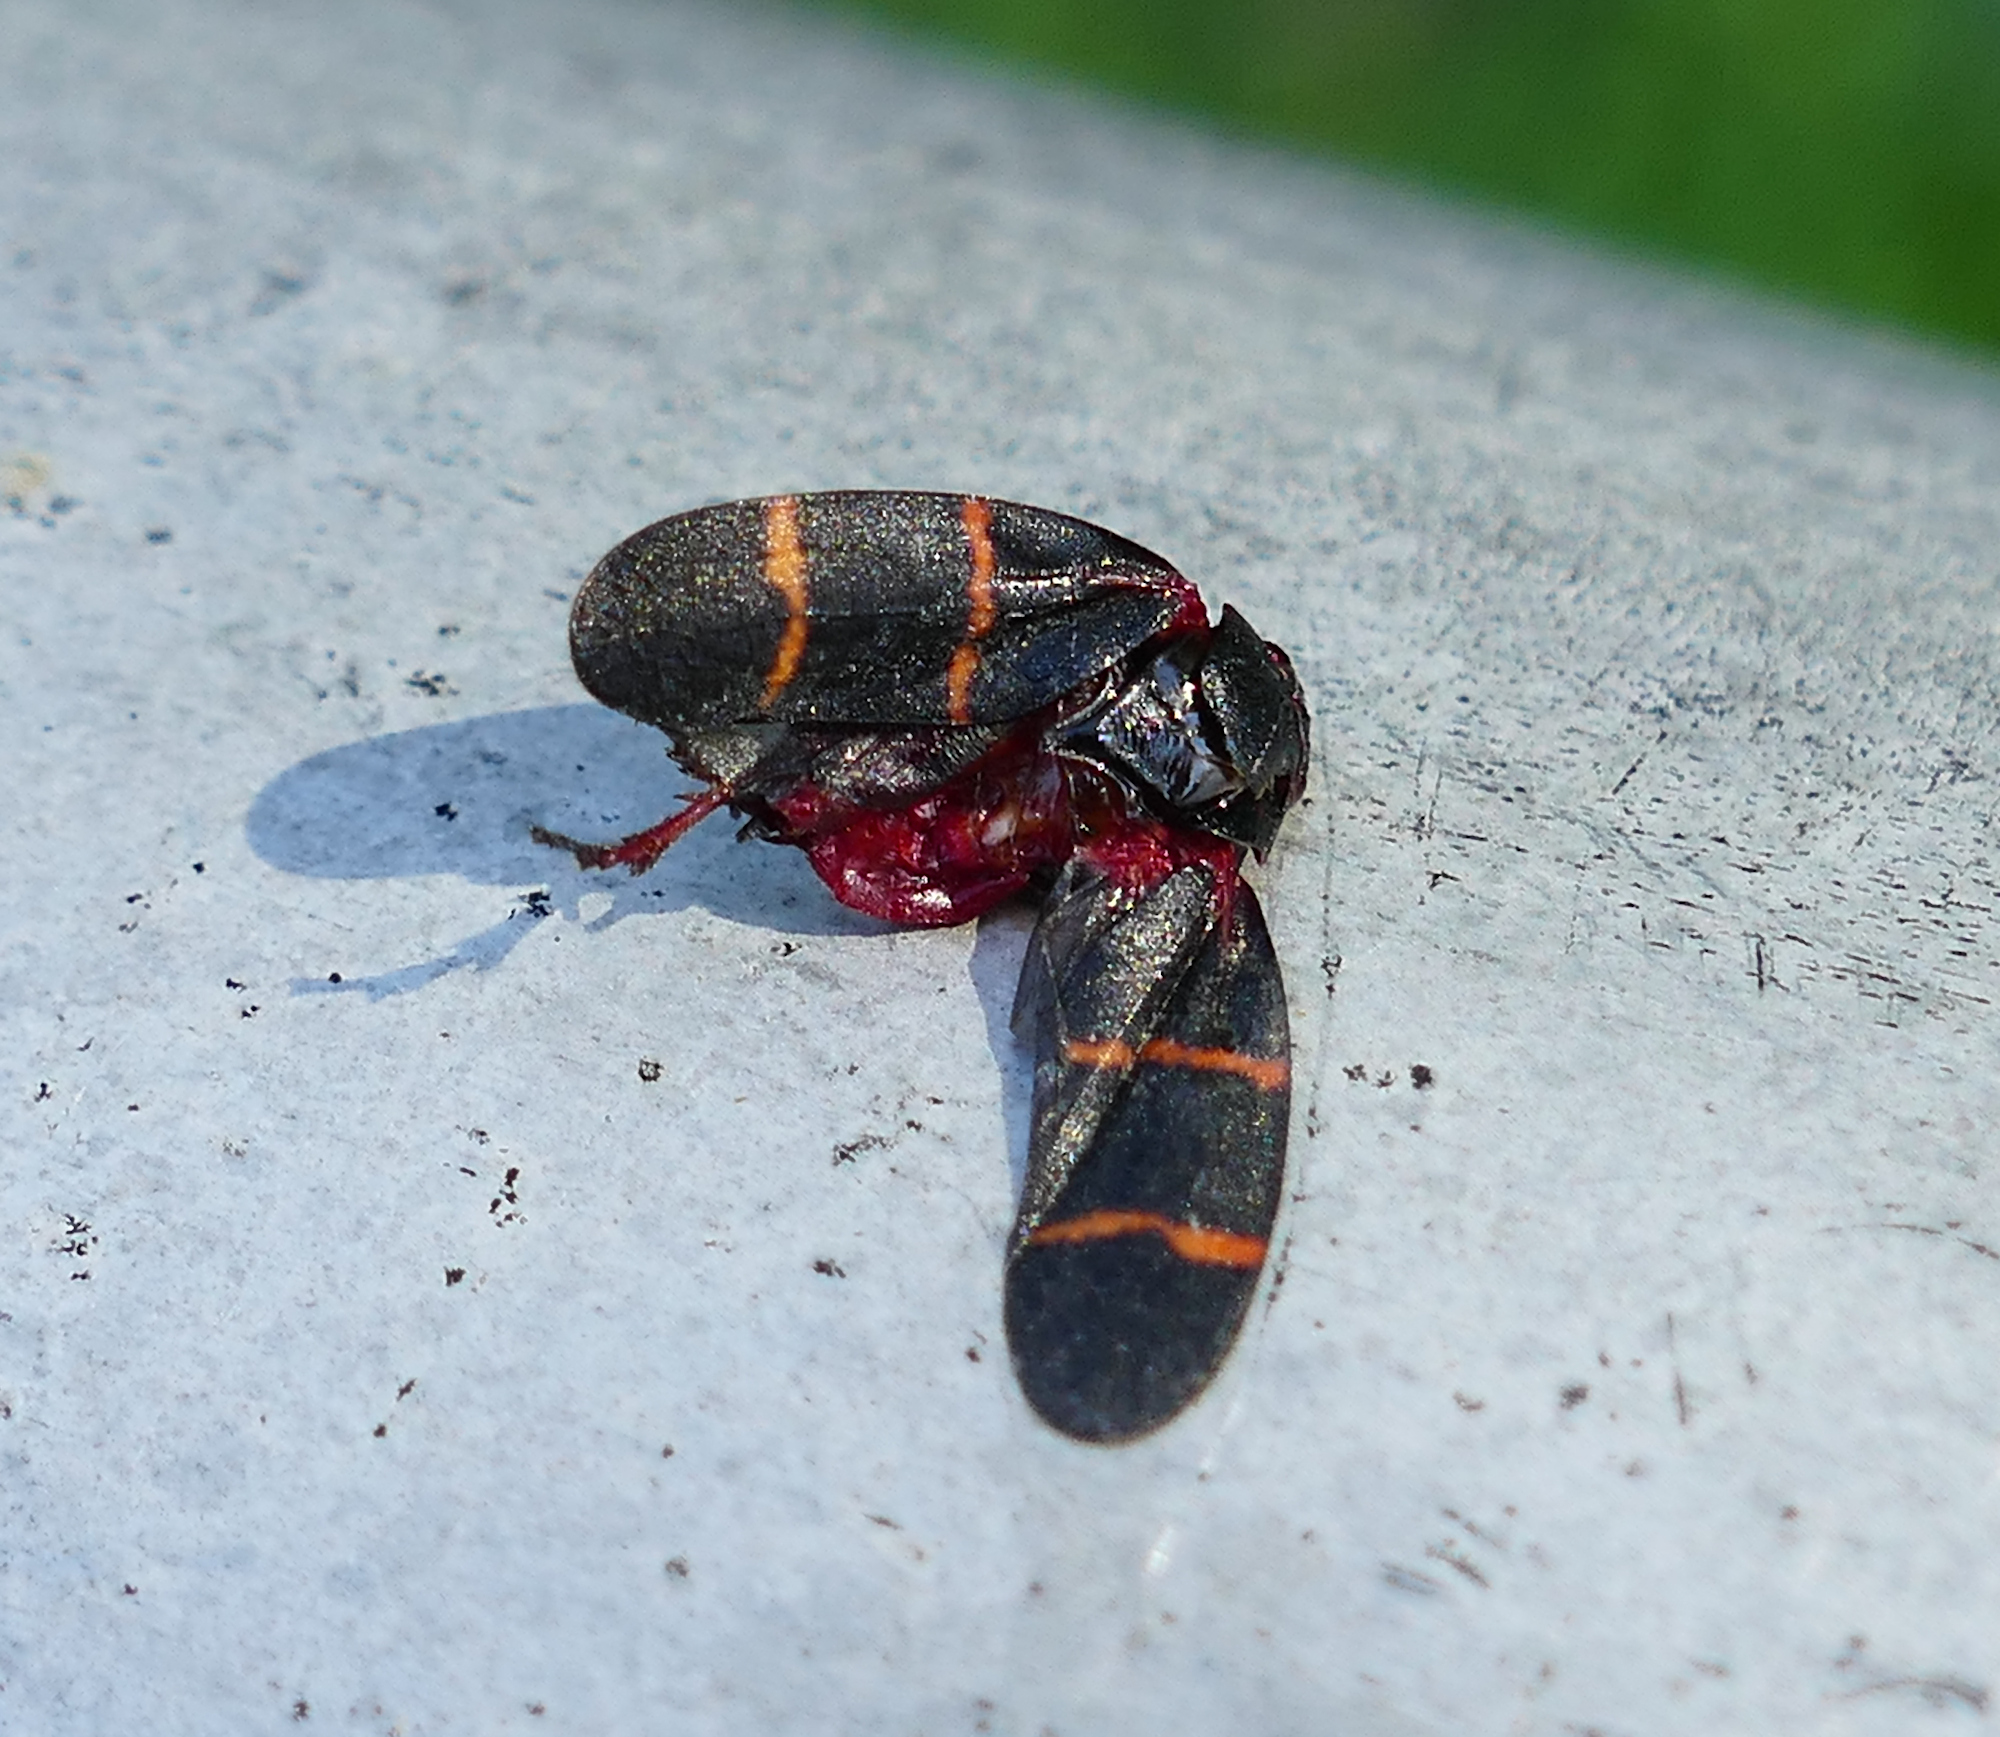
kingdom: Animalia
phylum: Arthropoda
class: Insecta
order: Hemiptera
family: Cercopidae
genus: Prosapia
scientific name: Prosapia bicincta
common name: Twolined spittlebug
